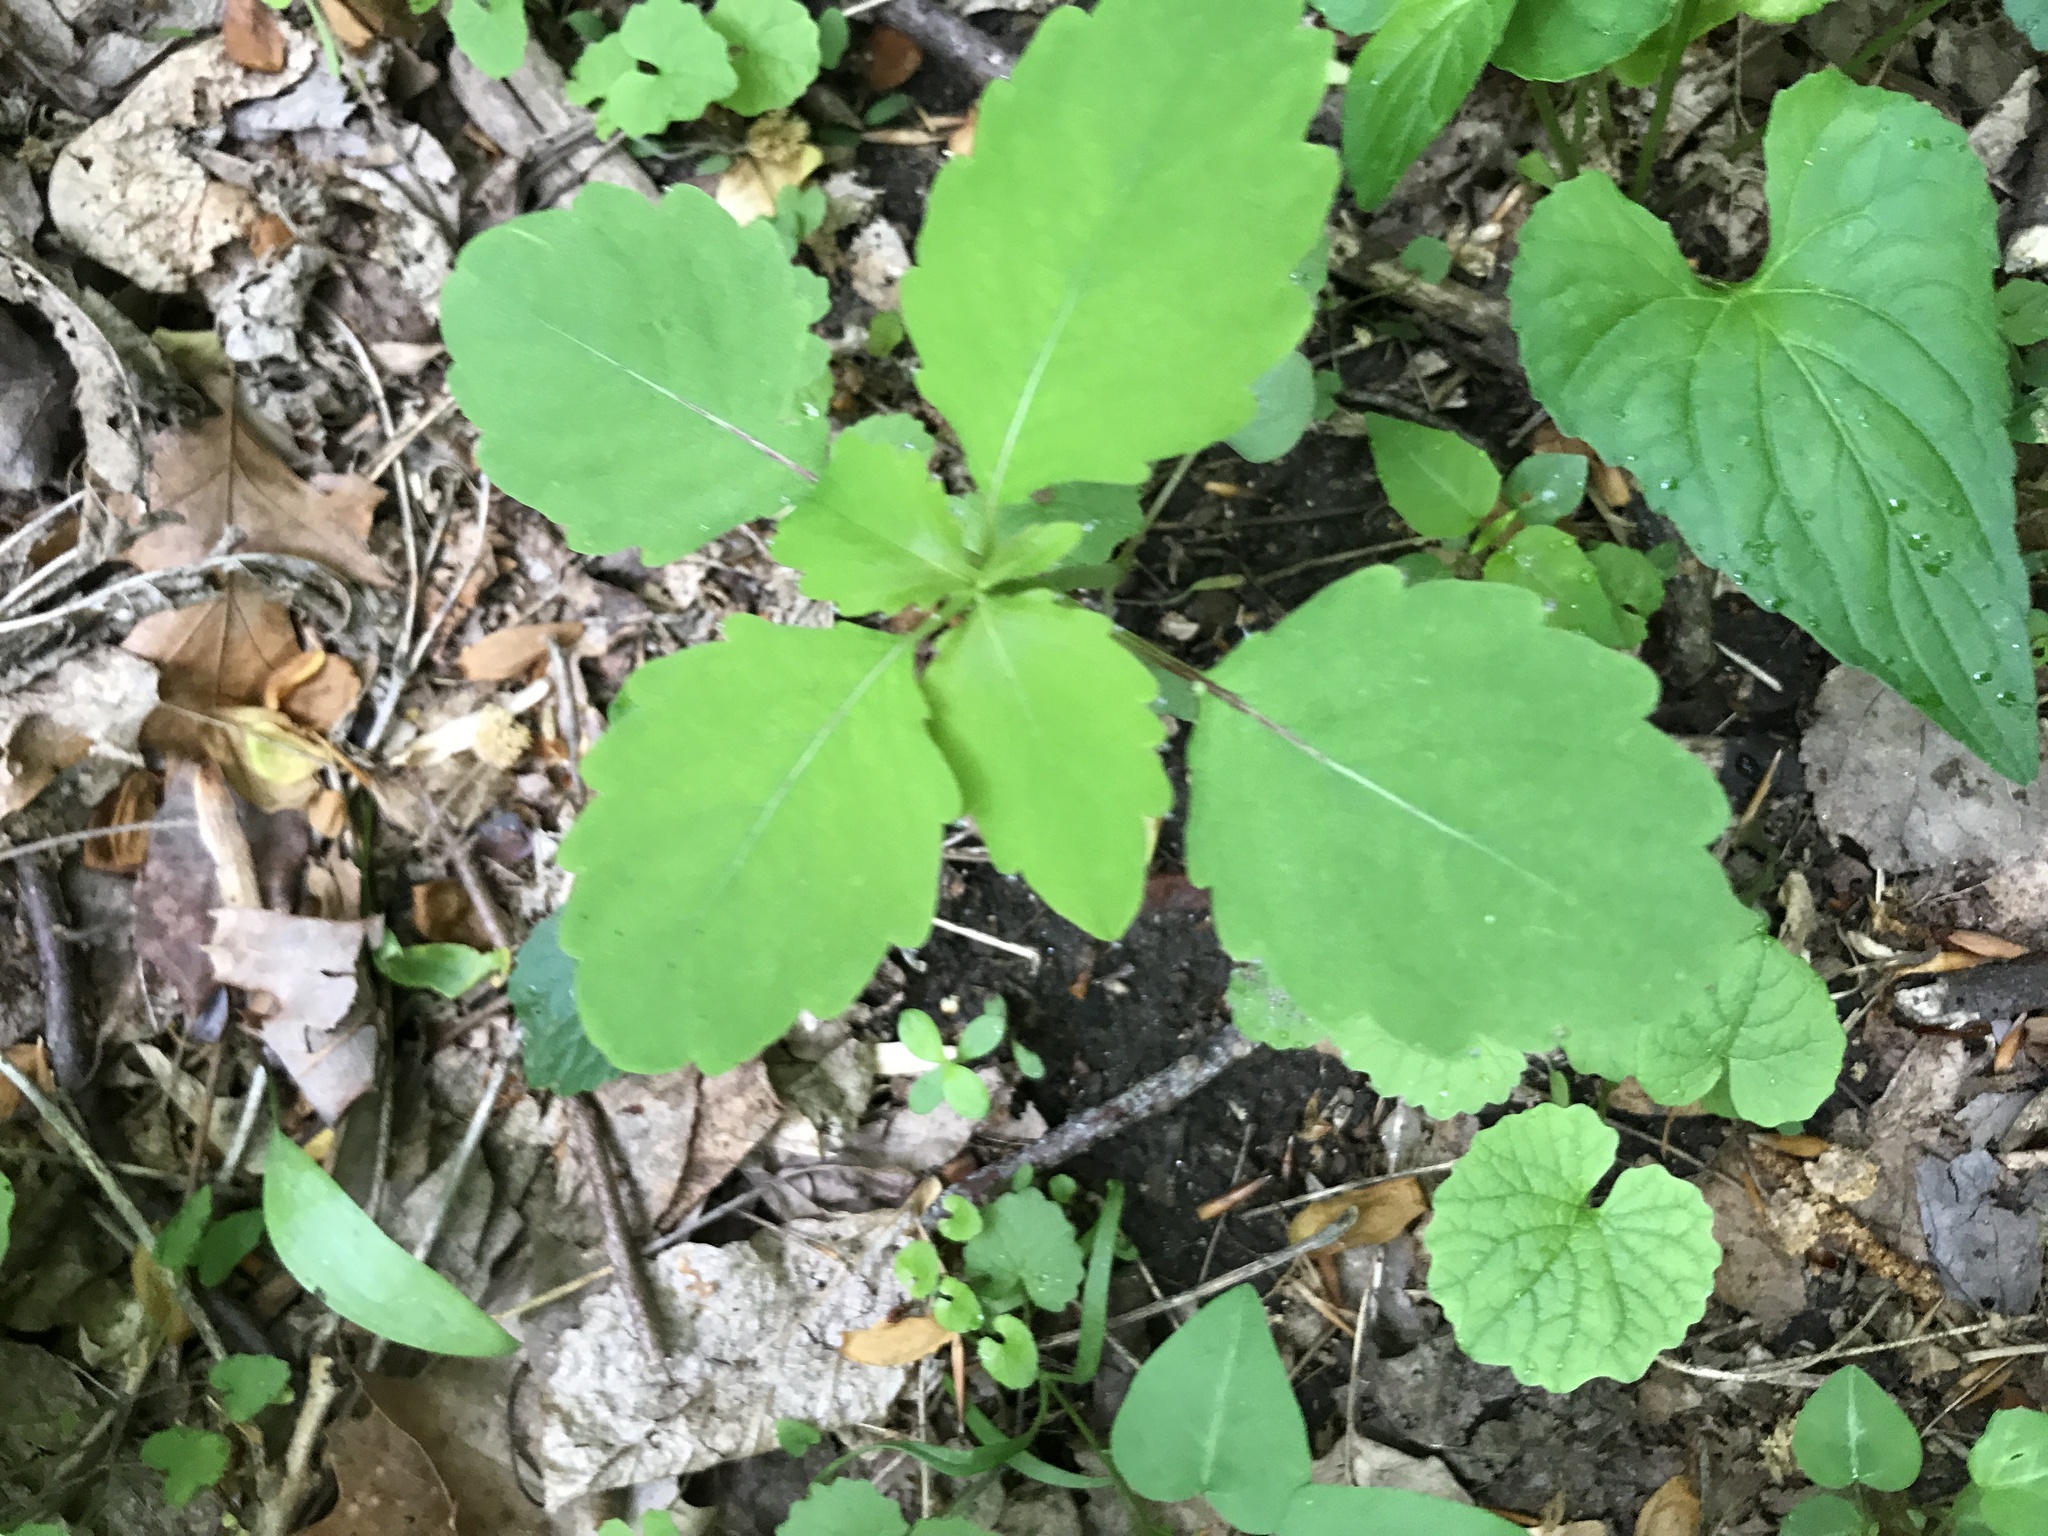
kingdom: Plantae
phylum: Tracheophyta
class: Magnoliopsida
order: Ericales
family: Balsaminaceae
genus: Impatiens
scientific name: Impatiens
